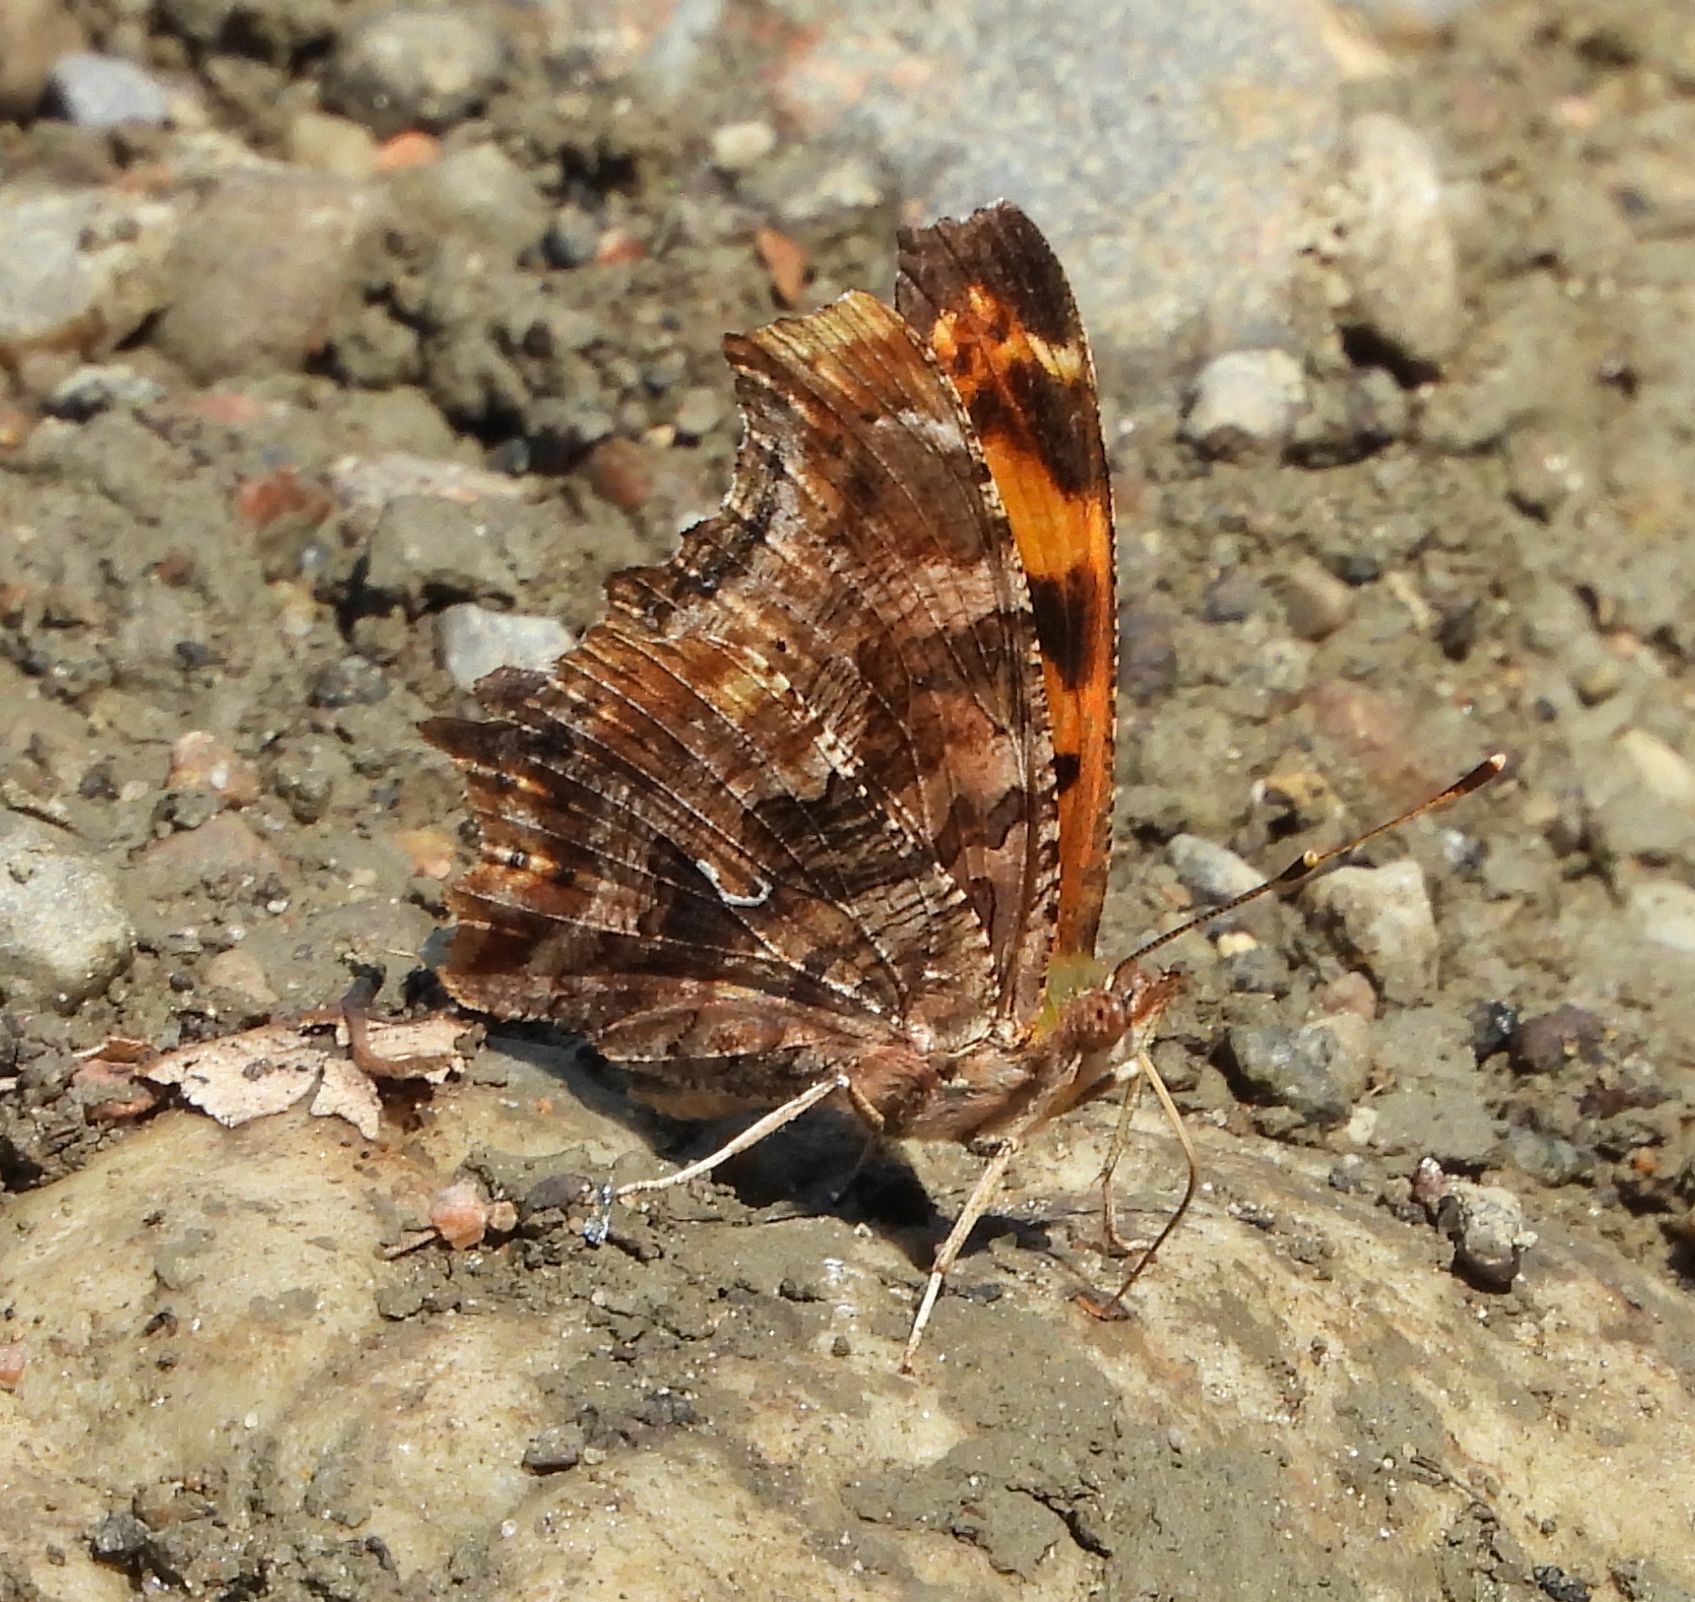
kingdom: Animalia
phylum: Arthropoda
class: Insecta
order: Lepidoptera
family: Nymphalidae
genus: Polygonia
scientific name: Polygonia comma
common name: Eastern comma
